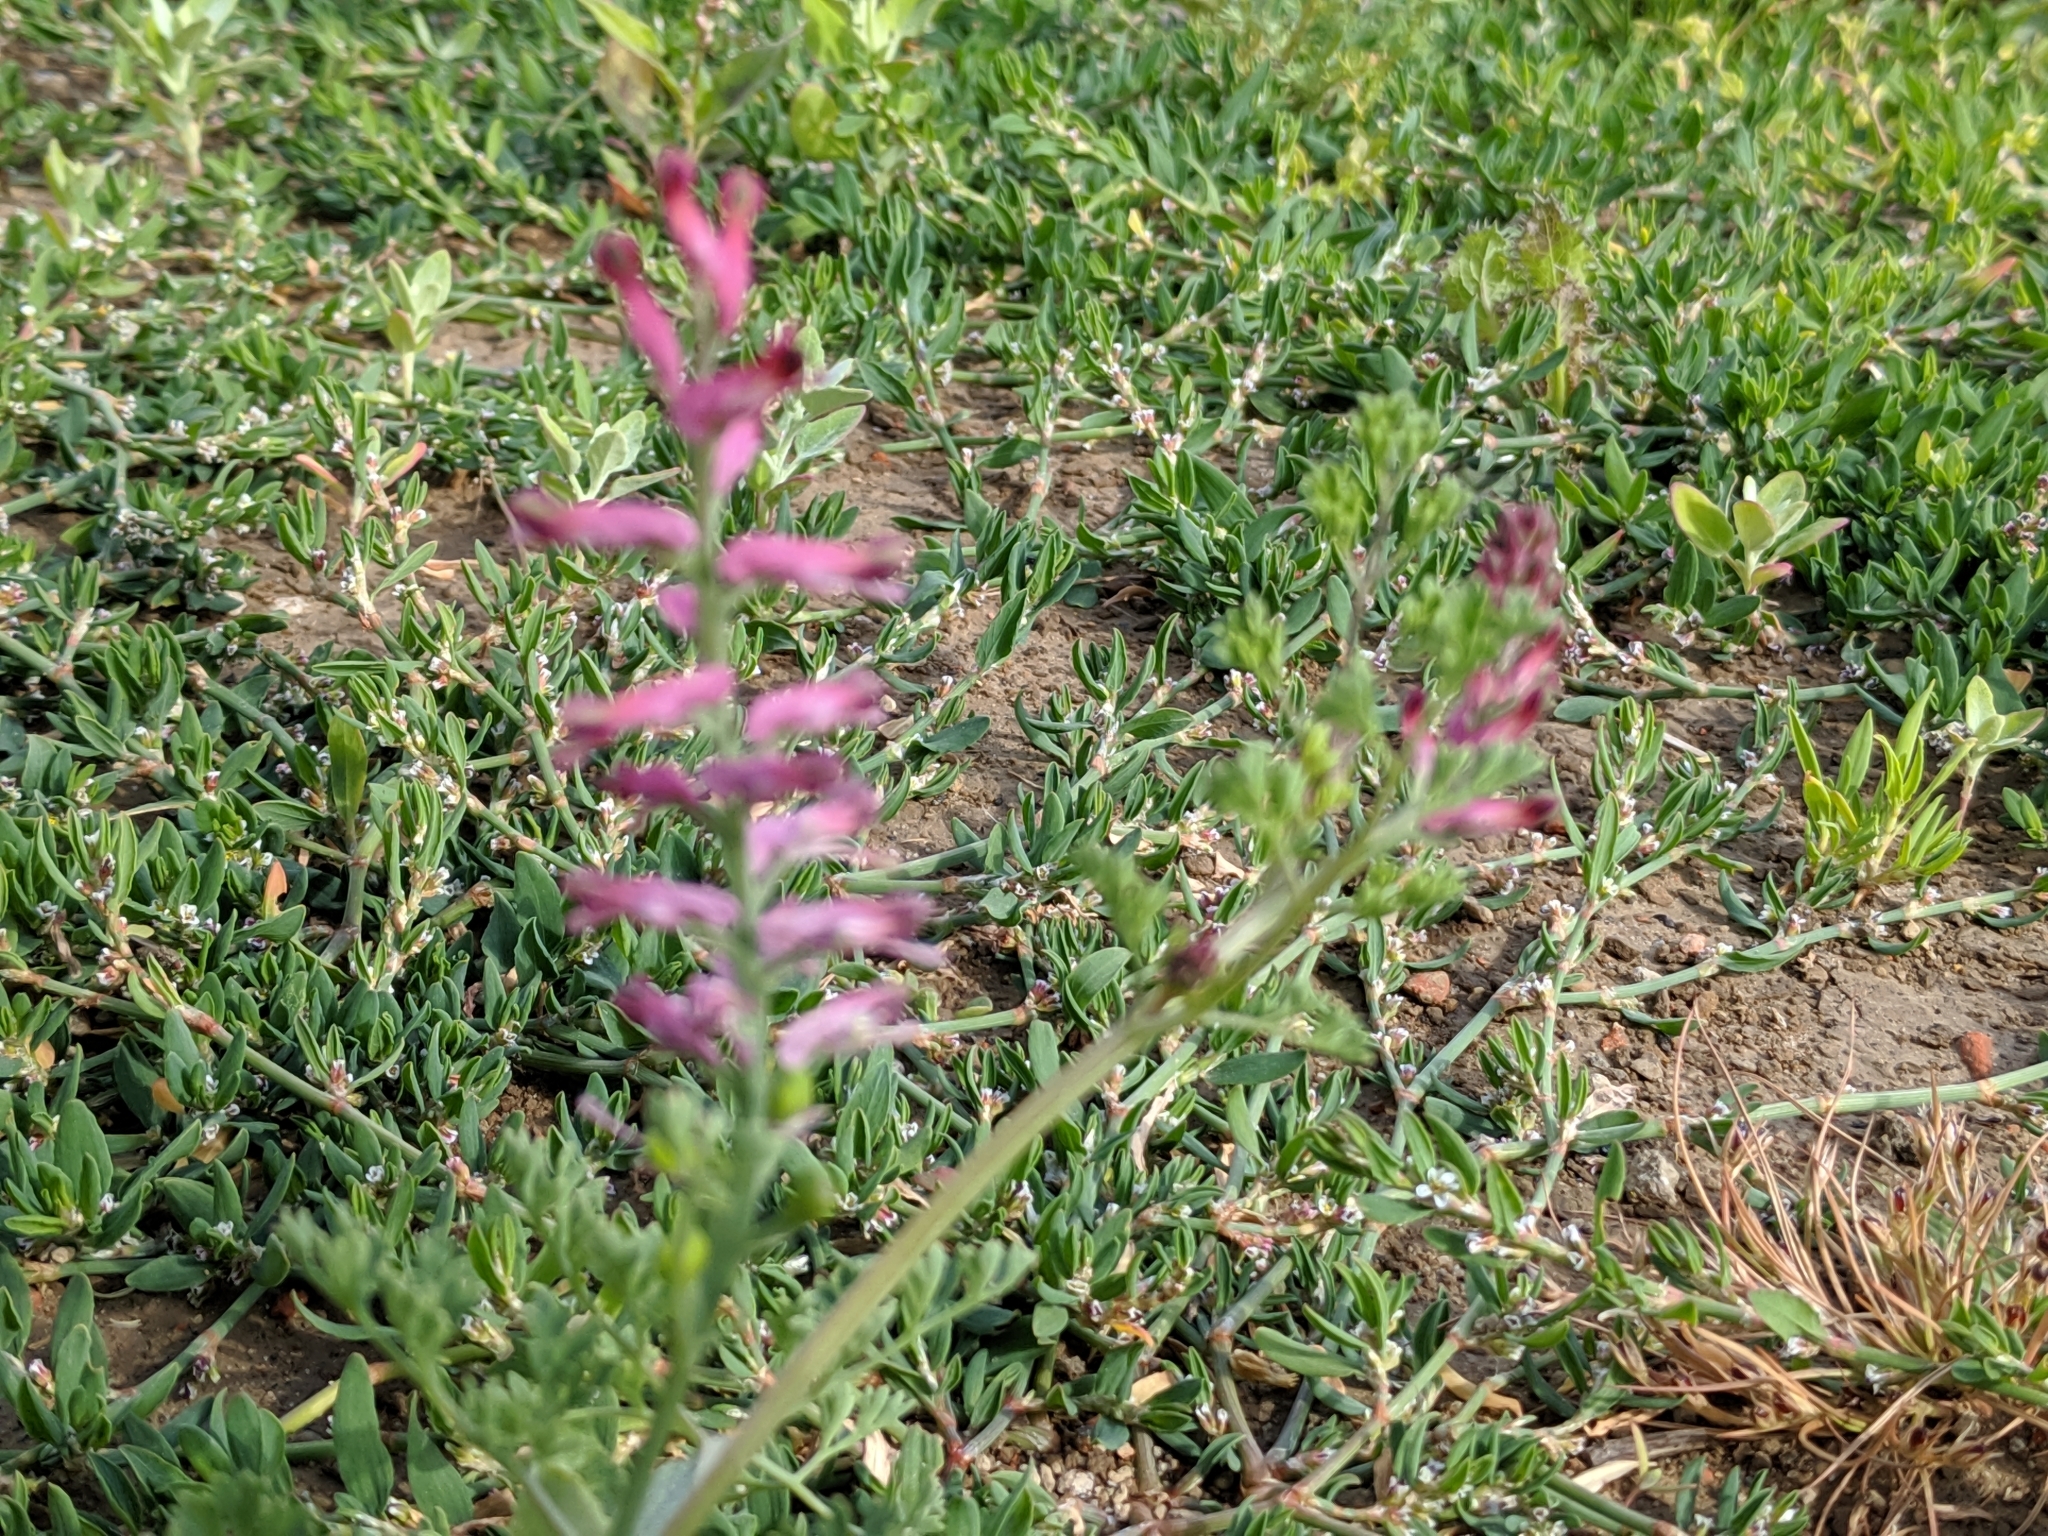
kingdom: Plantae
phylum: Tracheophyta
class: Magnoliopsida
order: Ranunculales
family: Papaveraceae
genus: Fumaria
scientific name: Fumaria officinalis
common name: Common fumitory
